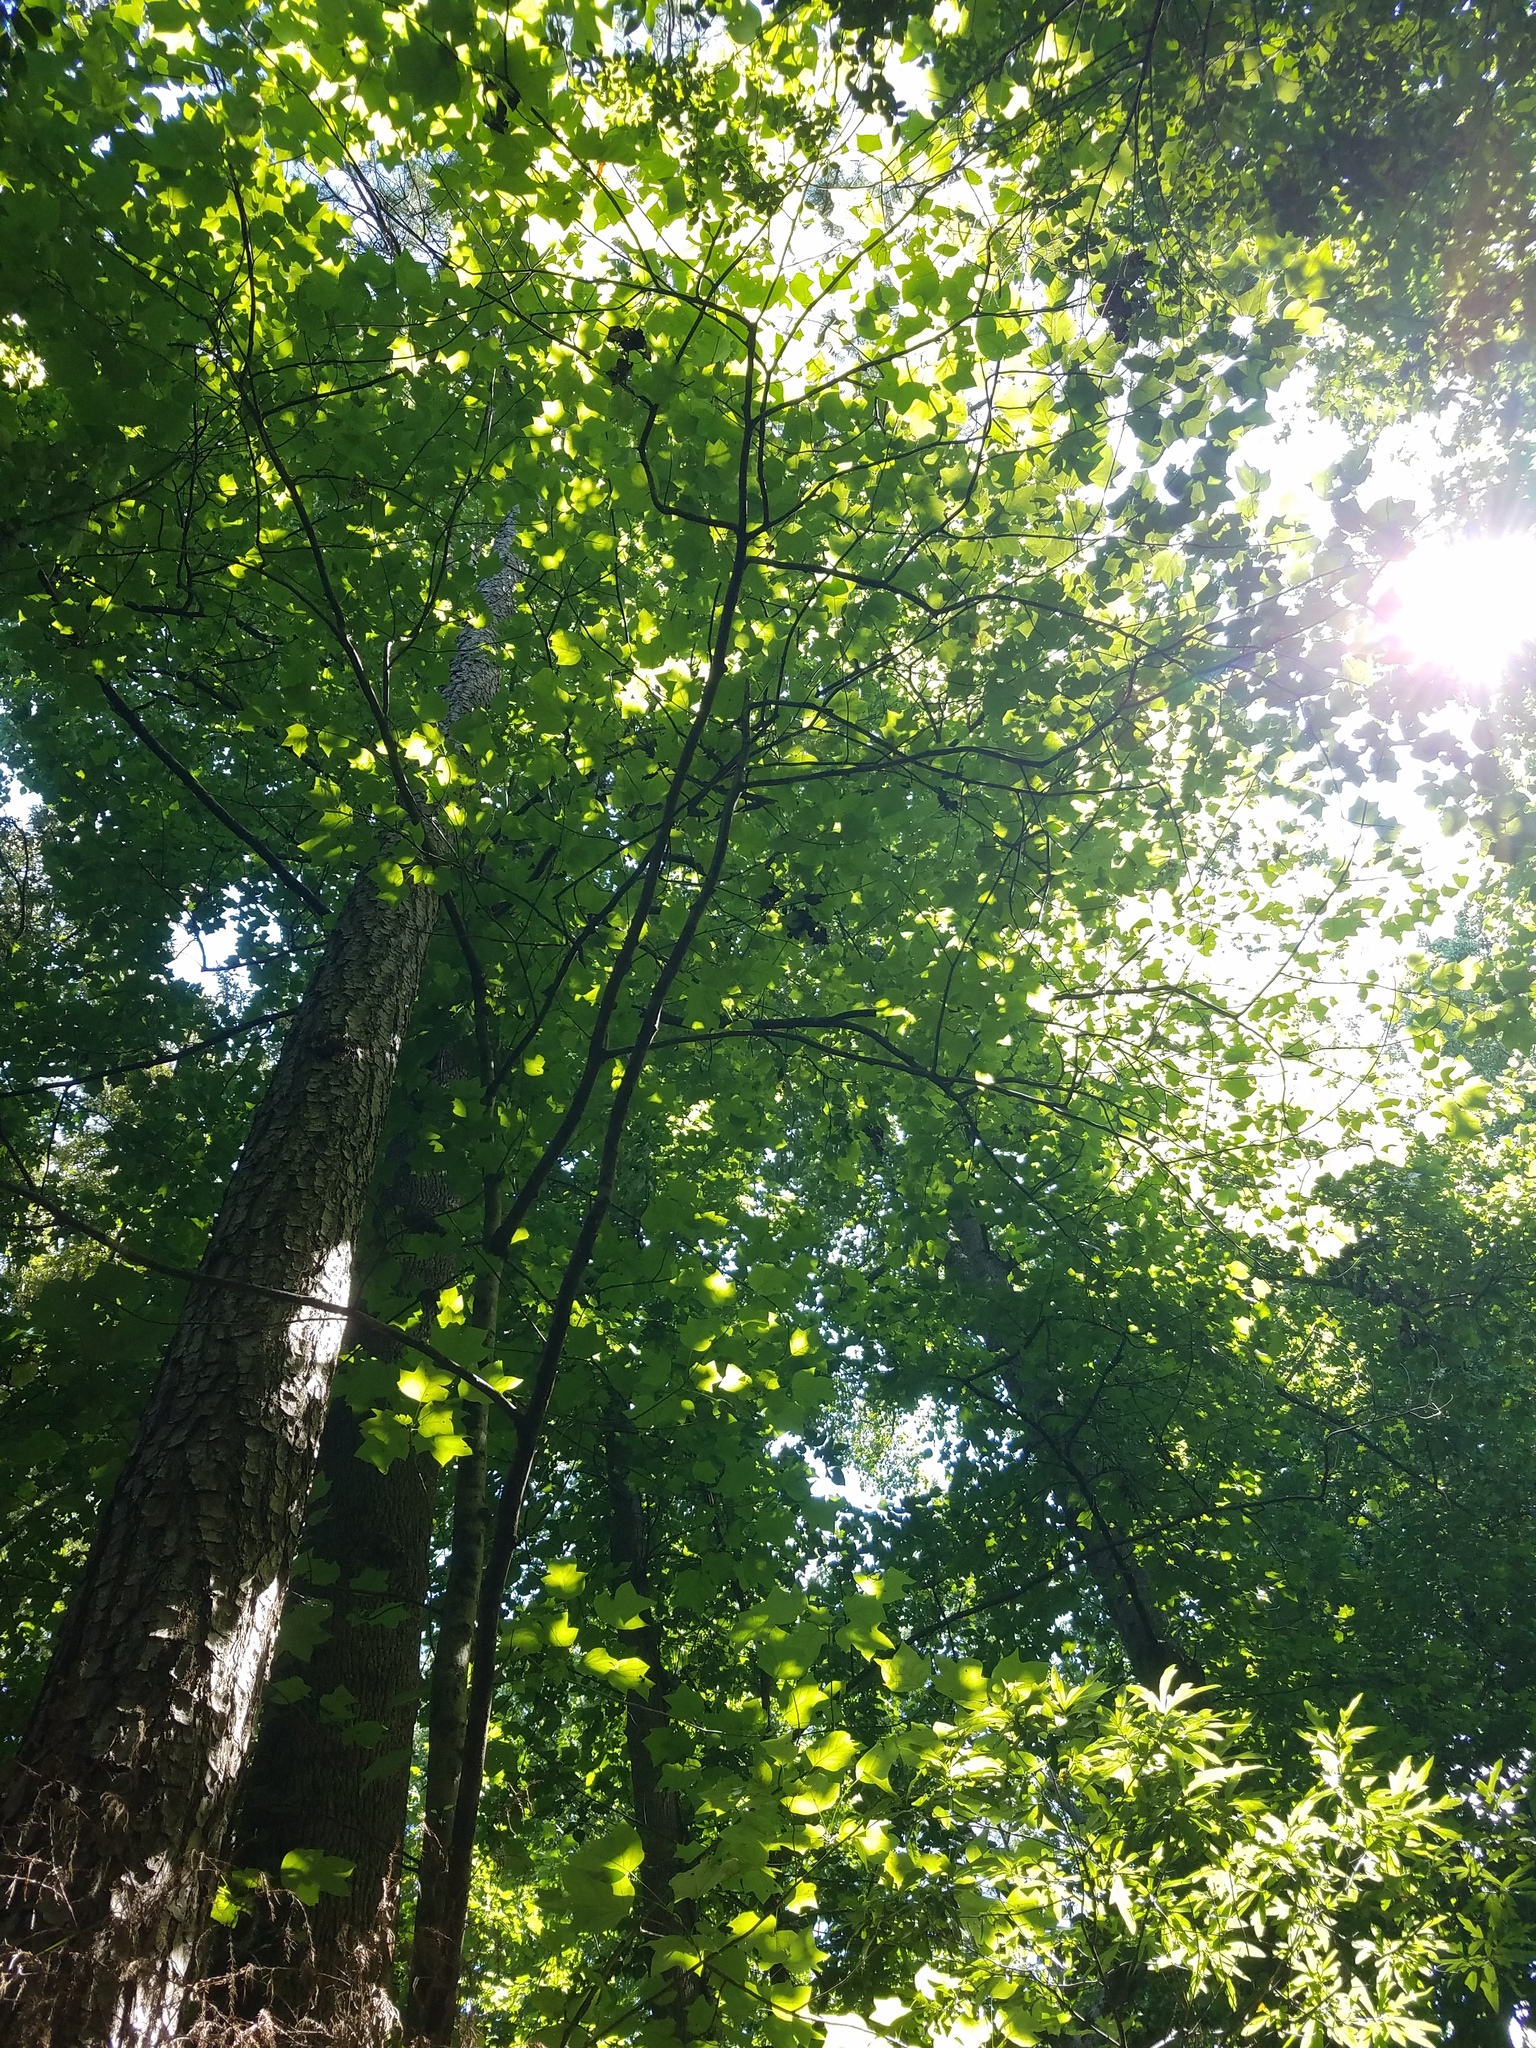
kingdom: Plantae
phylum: Tracheophyta
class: Magnoliopsida
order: Magnoliales
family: Magnoliaceae
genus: Liriodendron
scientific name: Liriodendron tulipifera
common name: Tulip tree
